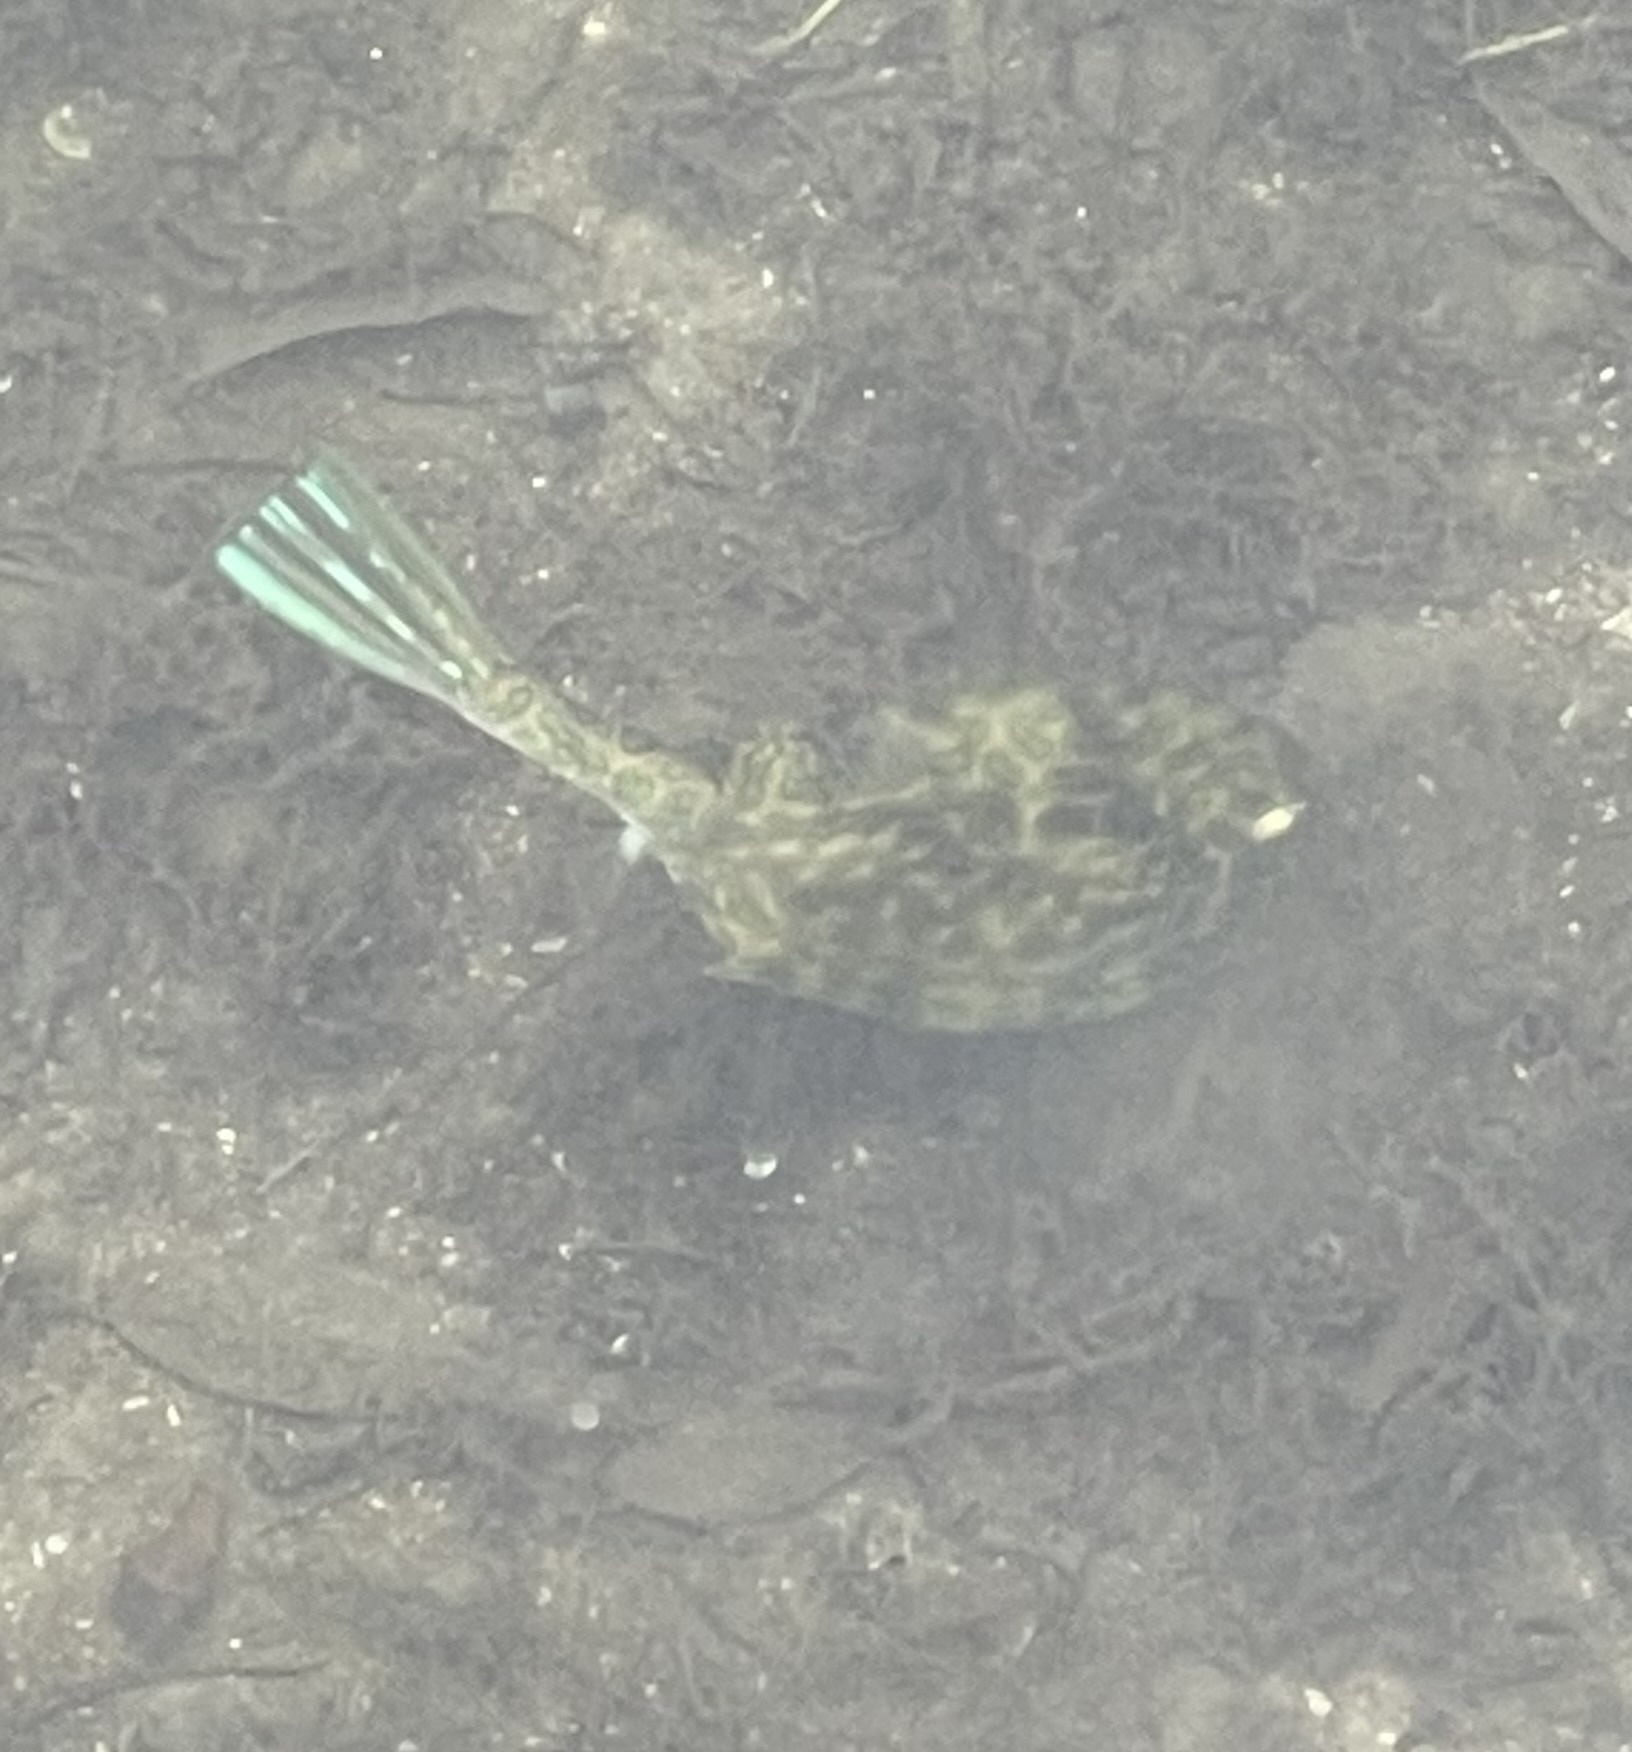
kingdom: Animalia
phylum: Chordata
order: Tetraodontiformes
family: Ostraciidae
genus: Acanthostracion
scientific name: Acanthostracion quadricornis
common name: Scrawled cowfish
